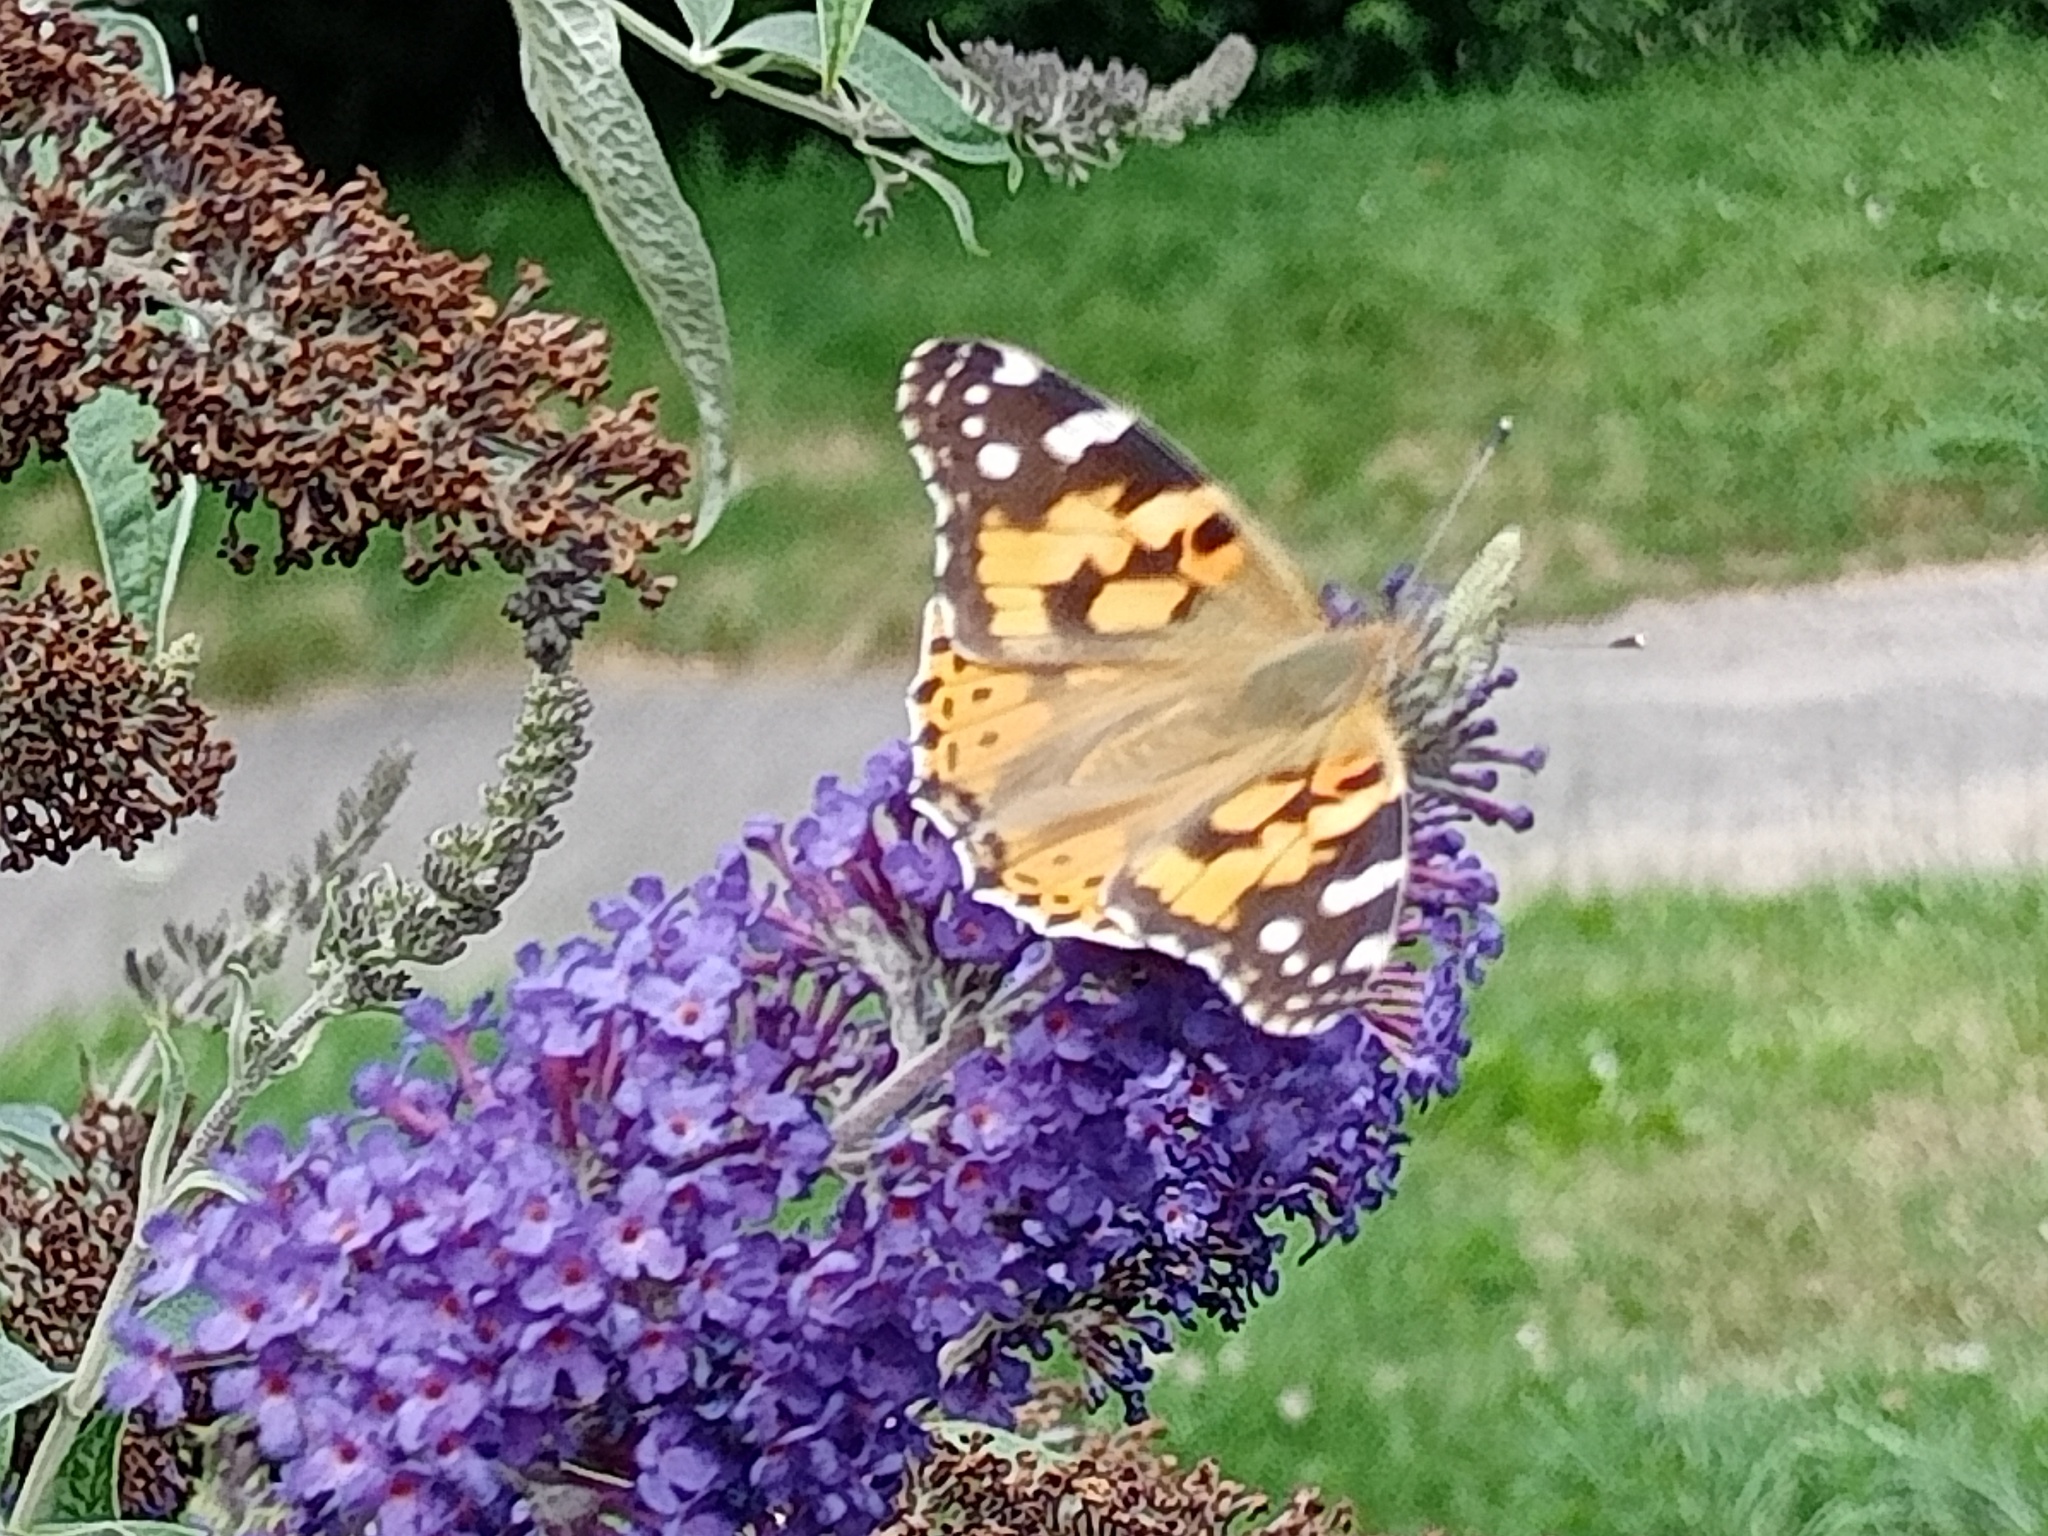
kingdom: Animalia
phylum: Arthropoda
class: Insecta
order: Lepidoptera
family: Nymphalidae
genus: Vanessa
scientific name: Vanessa cardui
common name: Painted lady
